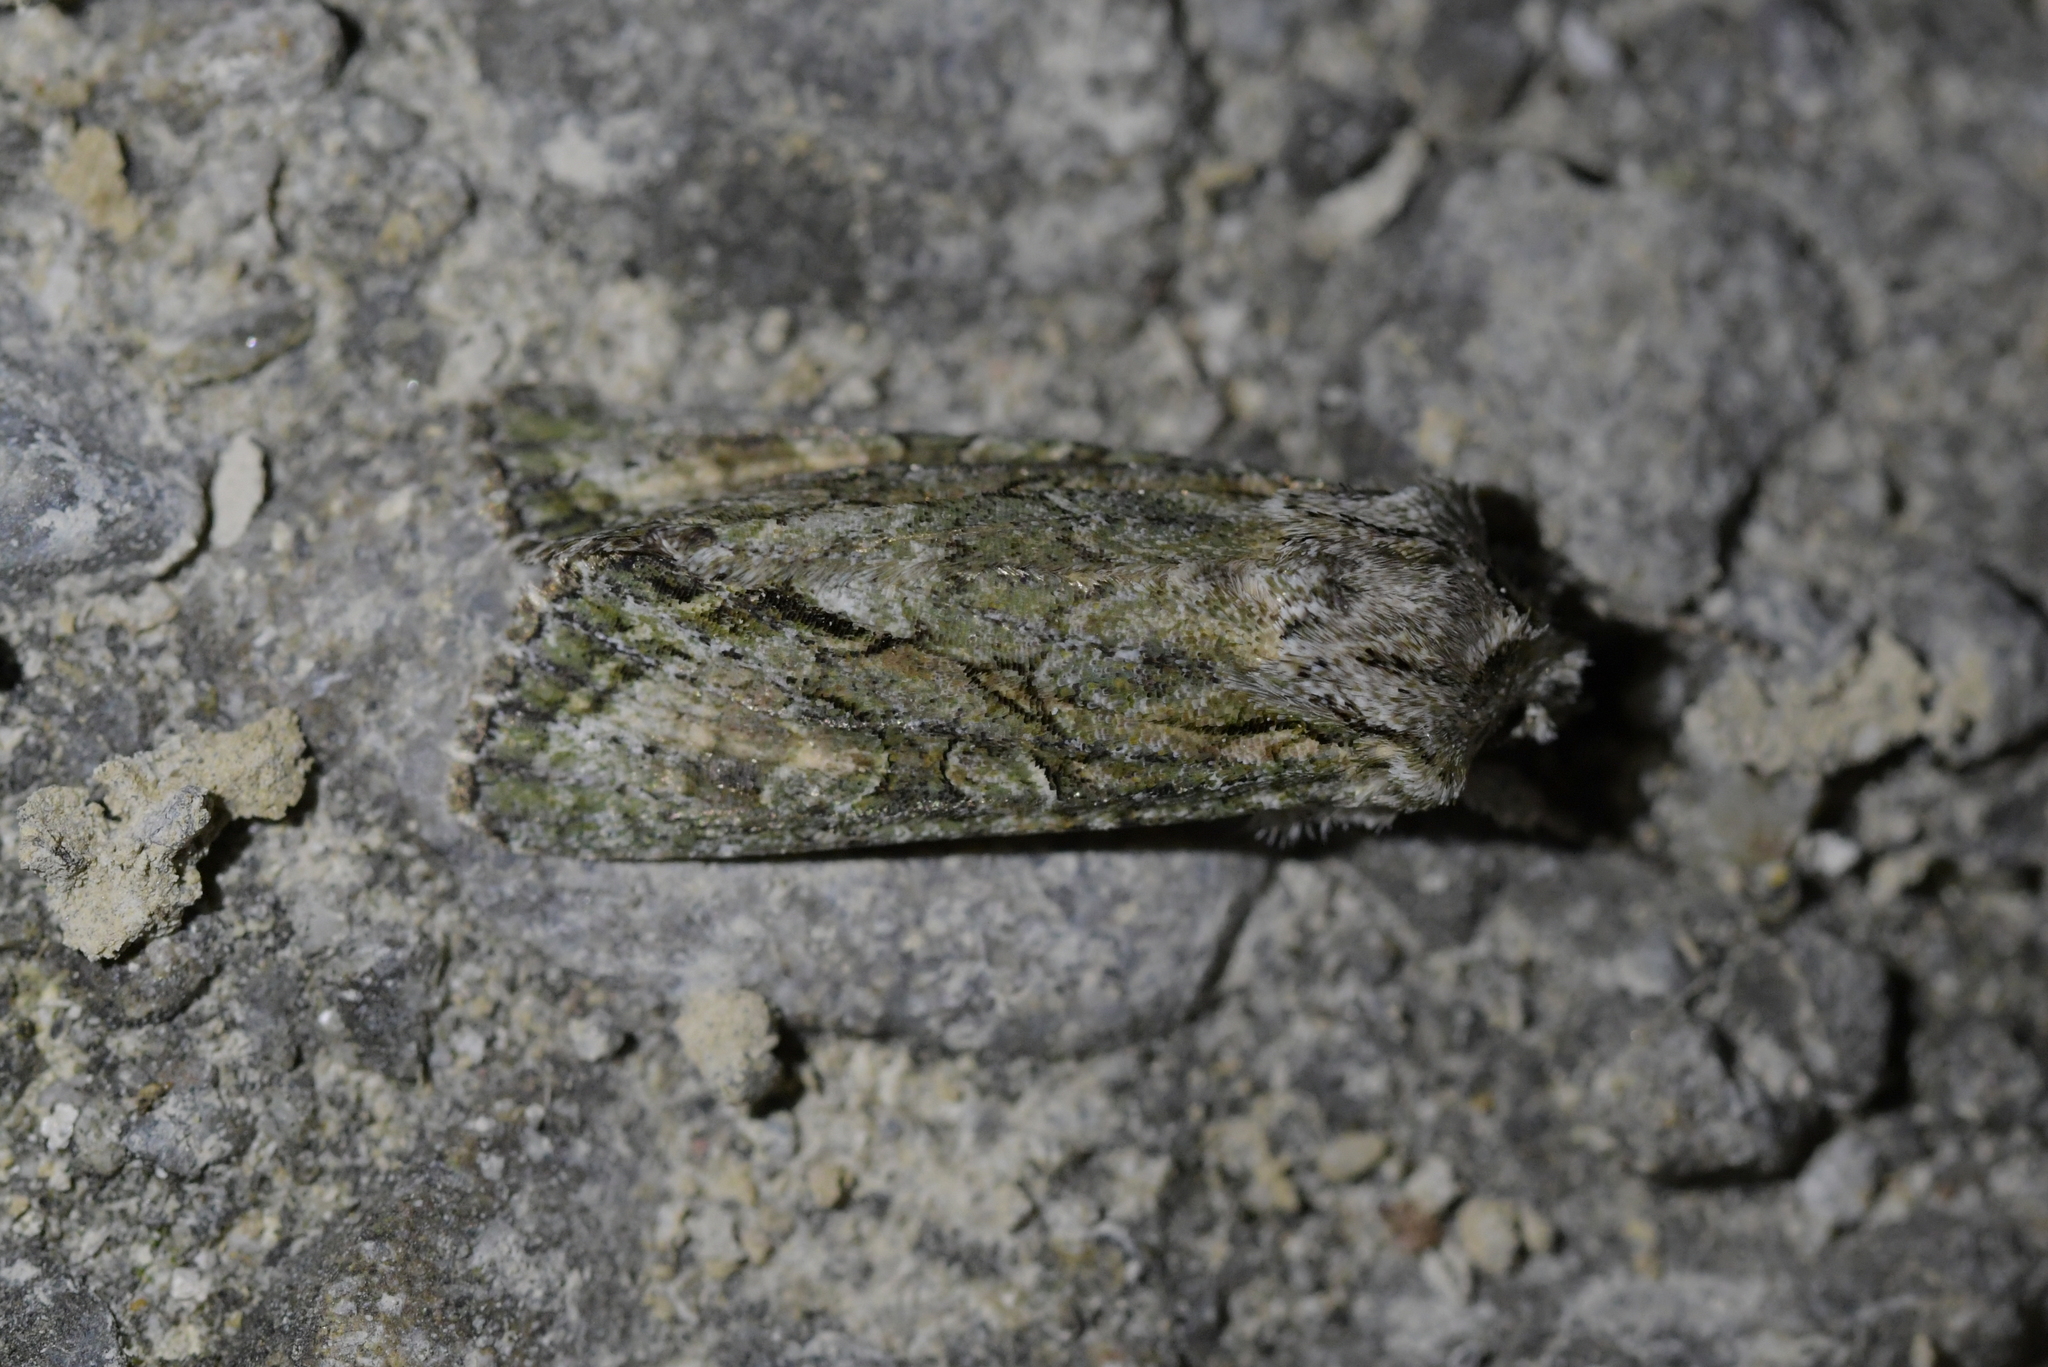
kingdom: Animalia
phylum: Arthropoda
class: Insecta
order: Lepidoptera
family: Noctuidae
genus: Ichneutica
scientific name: Ichneutica mutans
